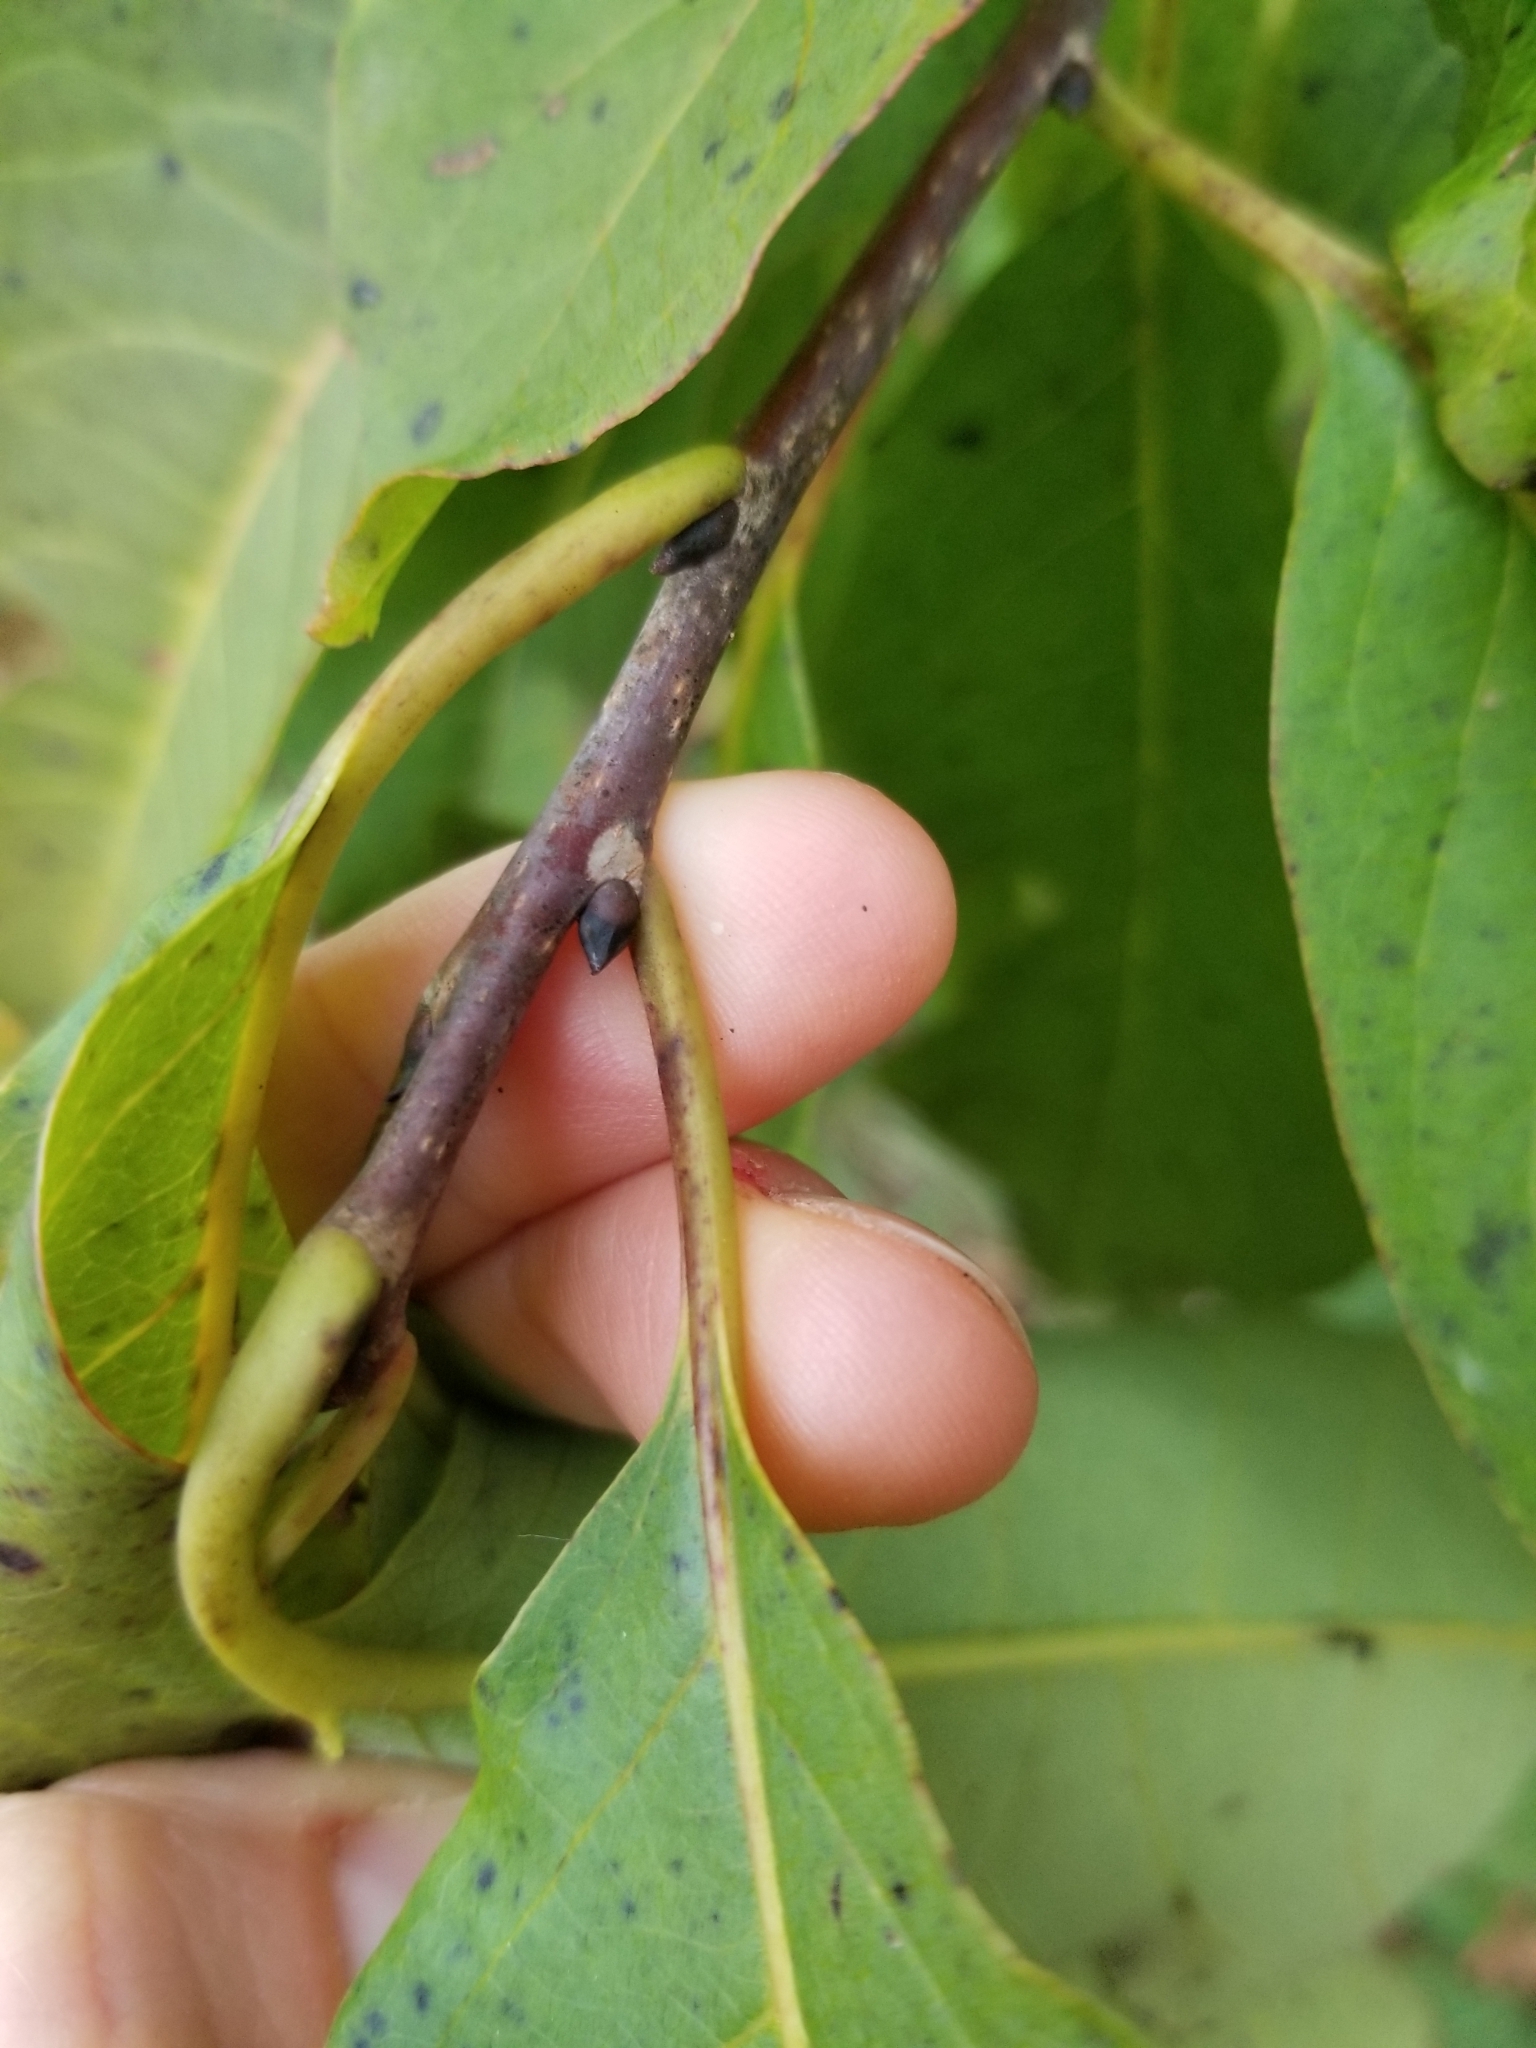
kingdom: Plantae
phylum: Tracheophyta
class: Magnoliopsida
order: Ericales
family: Ebenaceae
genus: Diospyros
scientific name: Diospyros virginiana
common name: Persimmon
